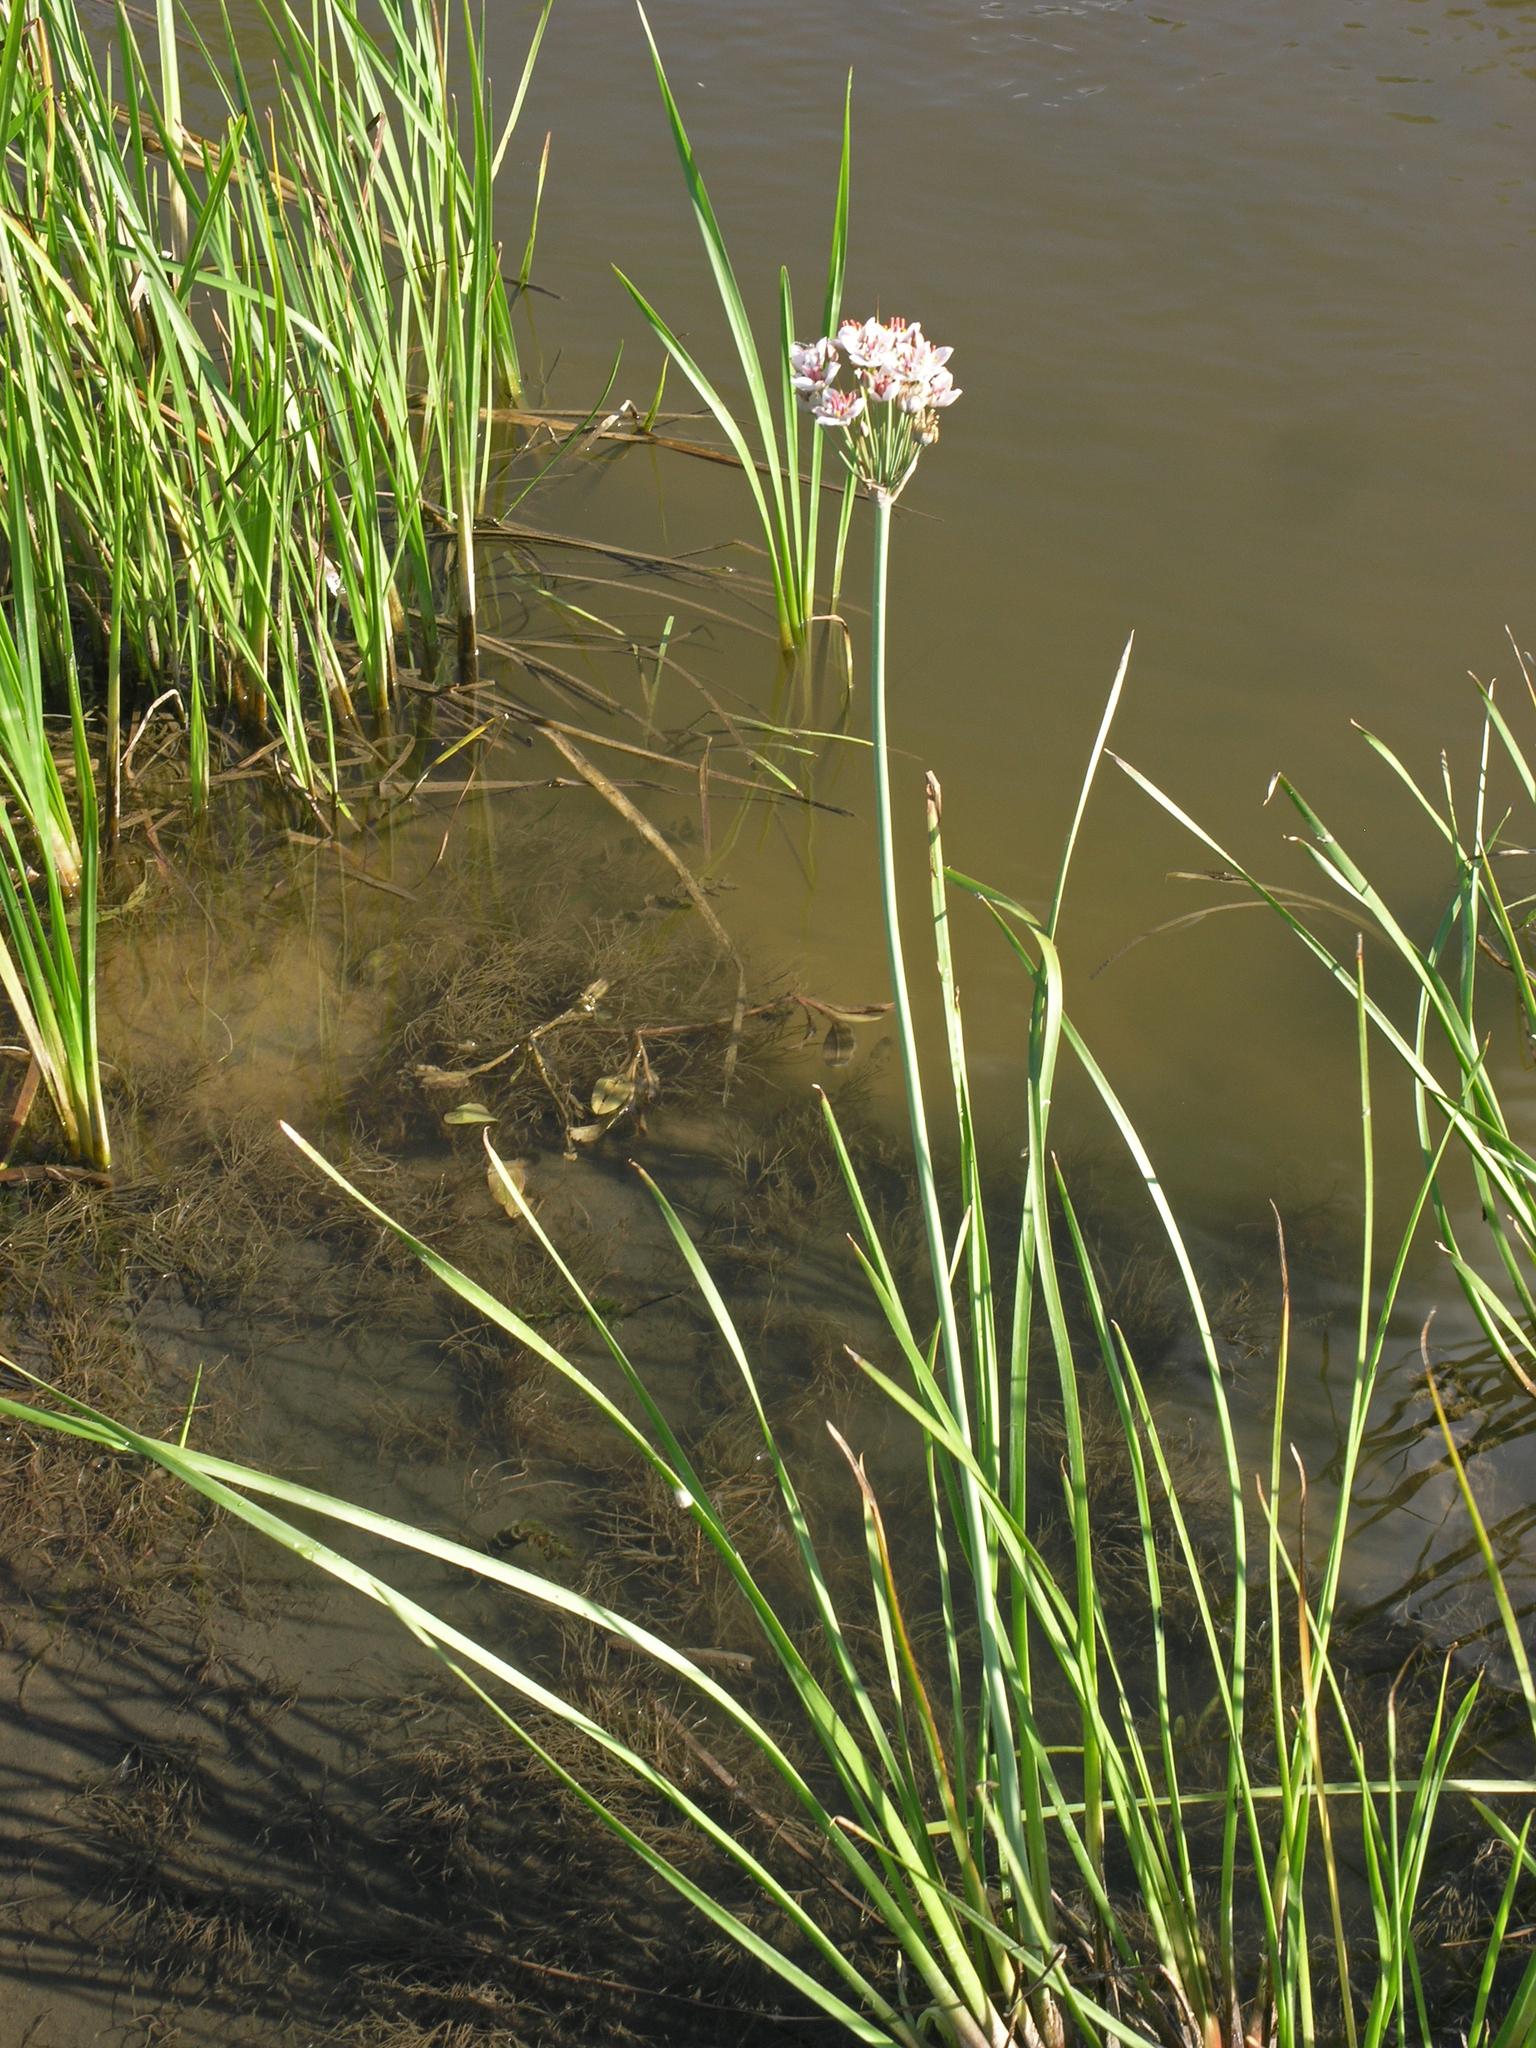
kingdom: Plantae
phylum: Tracheophyta
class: Liliopsida
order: Alismatales
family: Butomaceae
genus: Butomus
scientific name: Butomus umbellatus
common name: Flowering-rush
